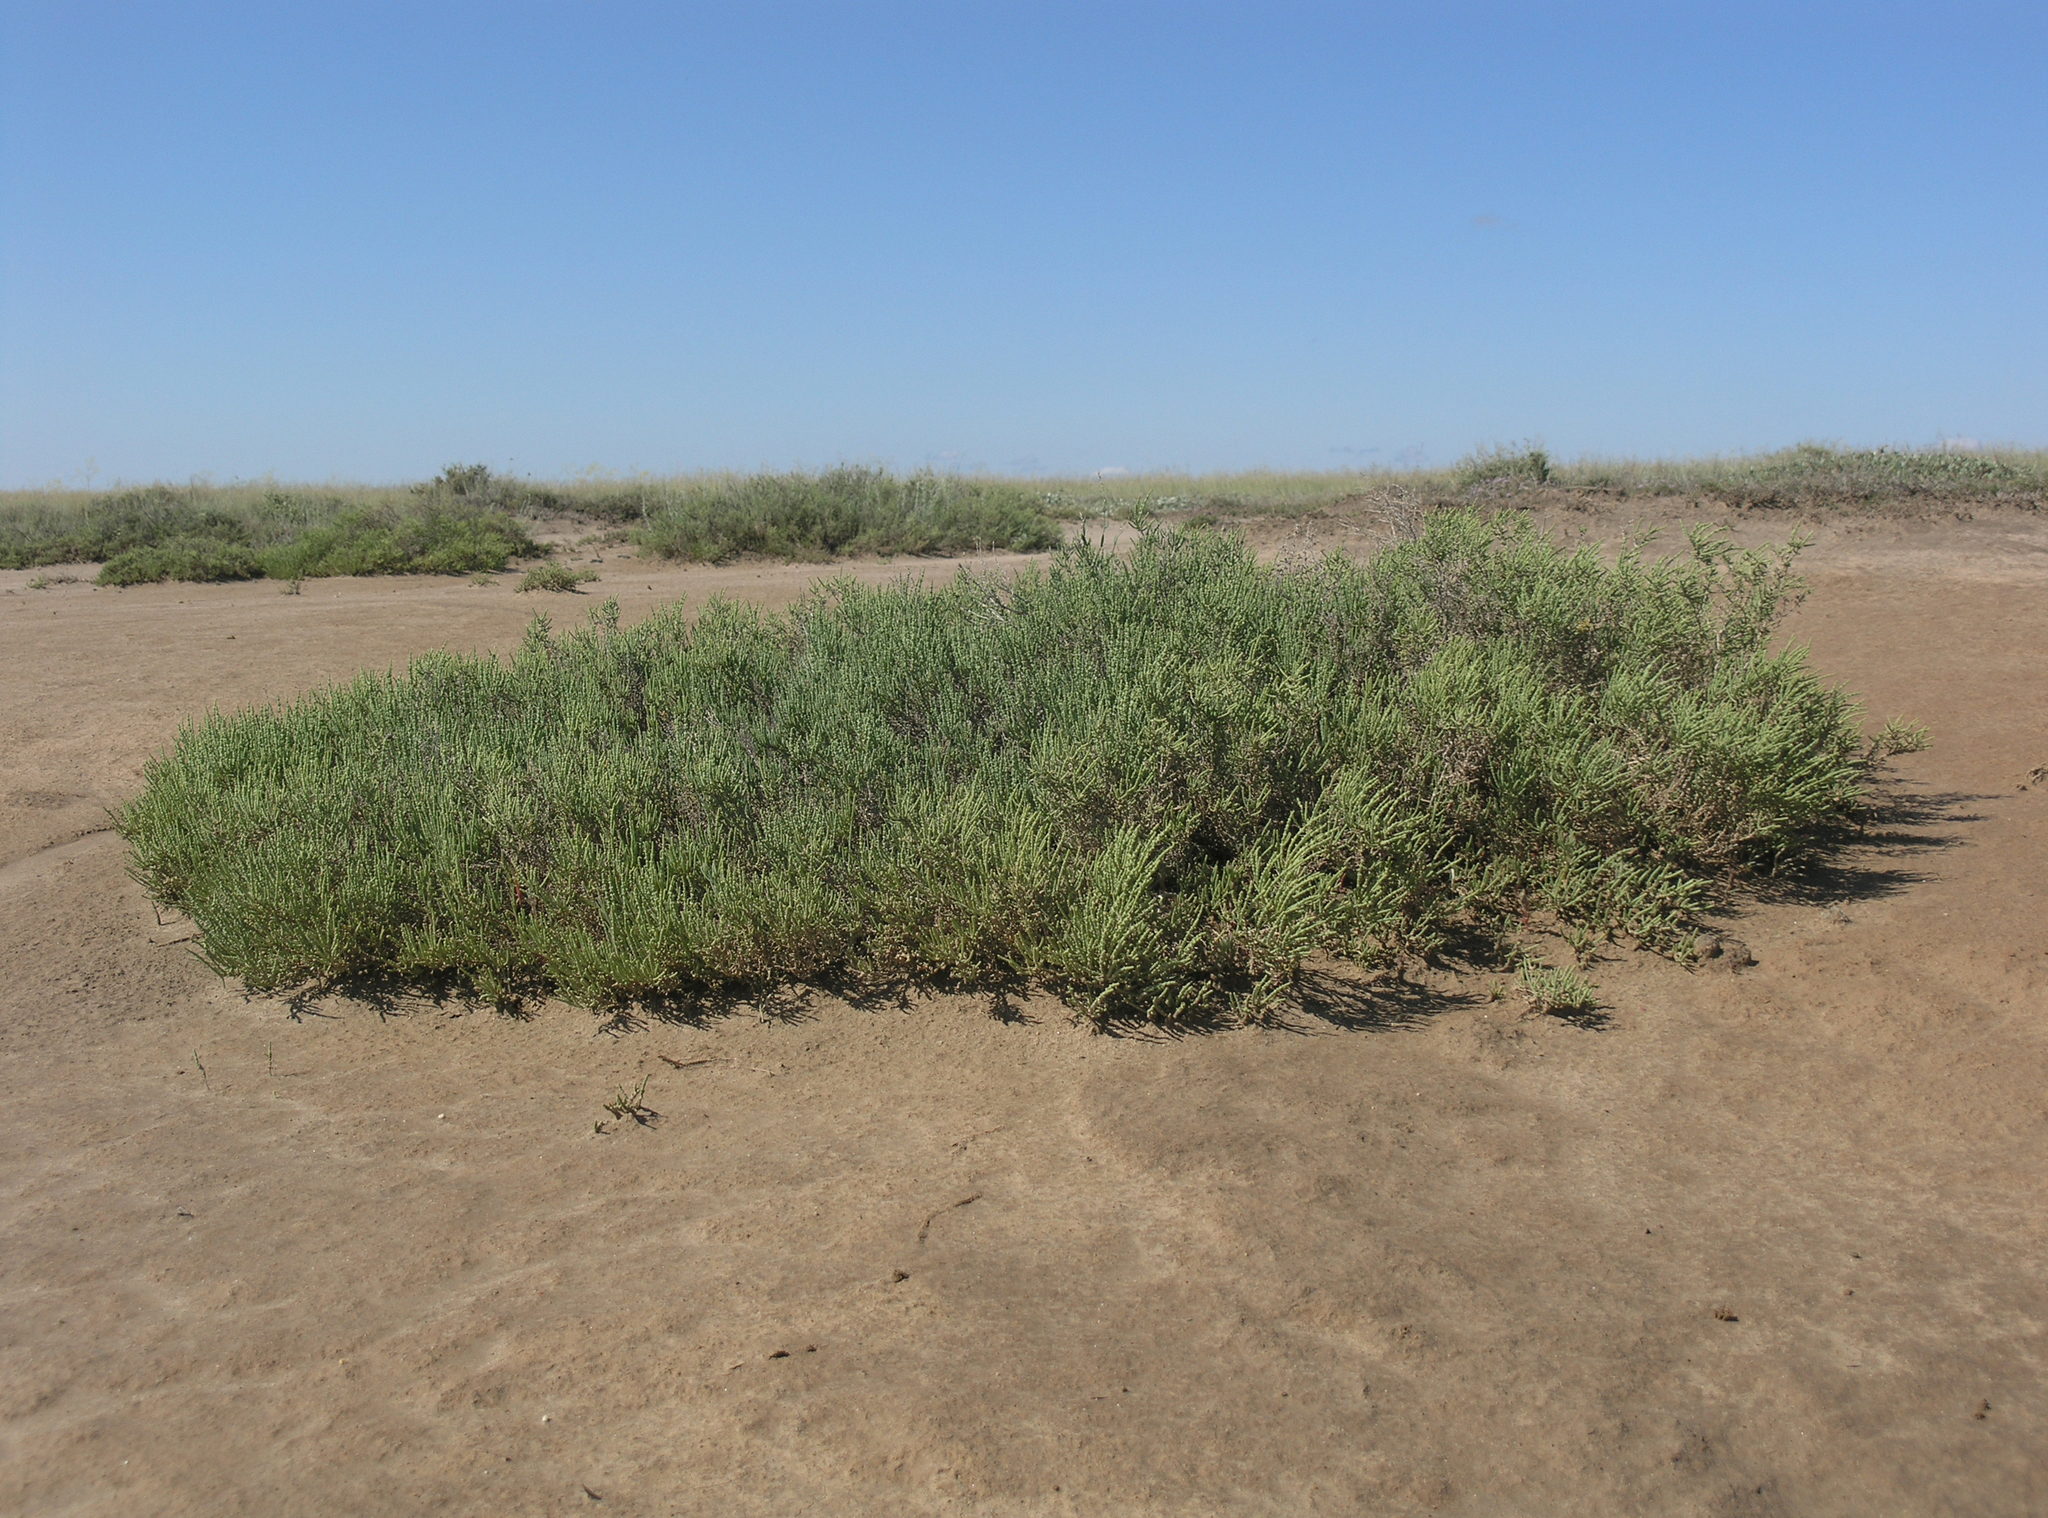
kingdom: Plantae
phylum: Tracheophyta
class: Magnoliopsida
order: Caryophyllales
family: Amaranthaceae
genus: Halocnemum
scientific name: Halocnemum strobilaceum
